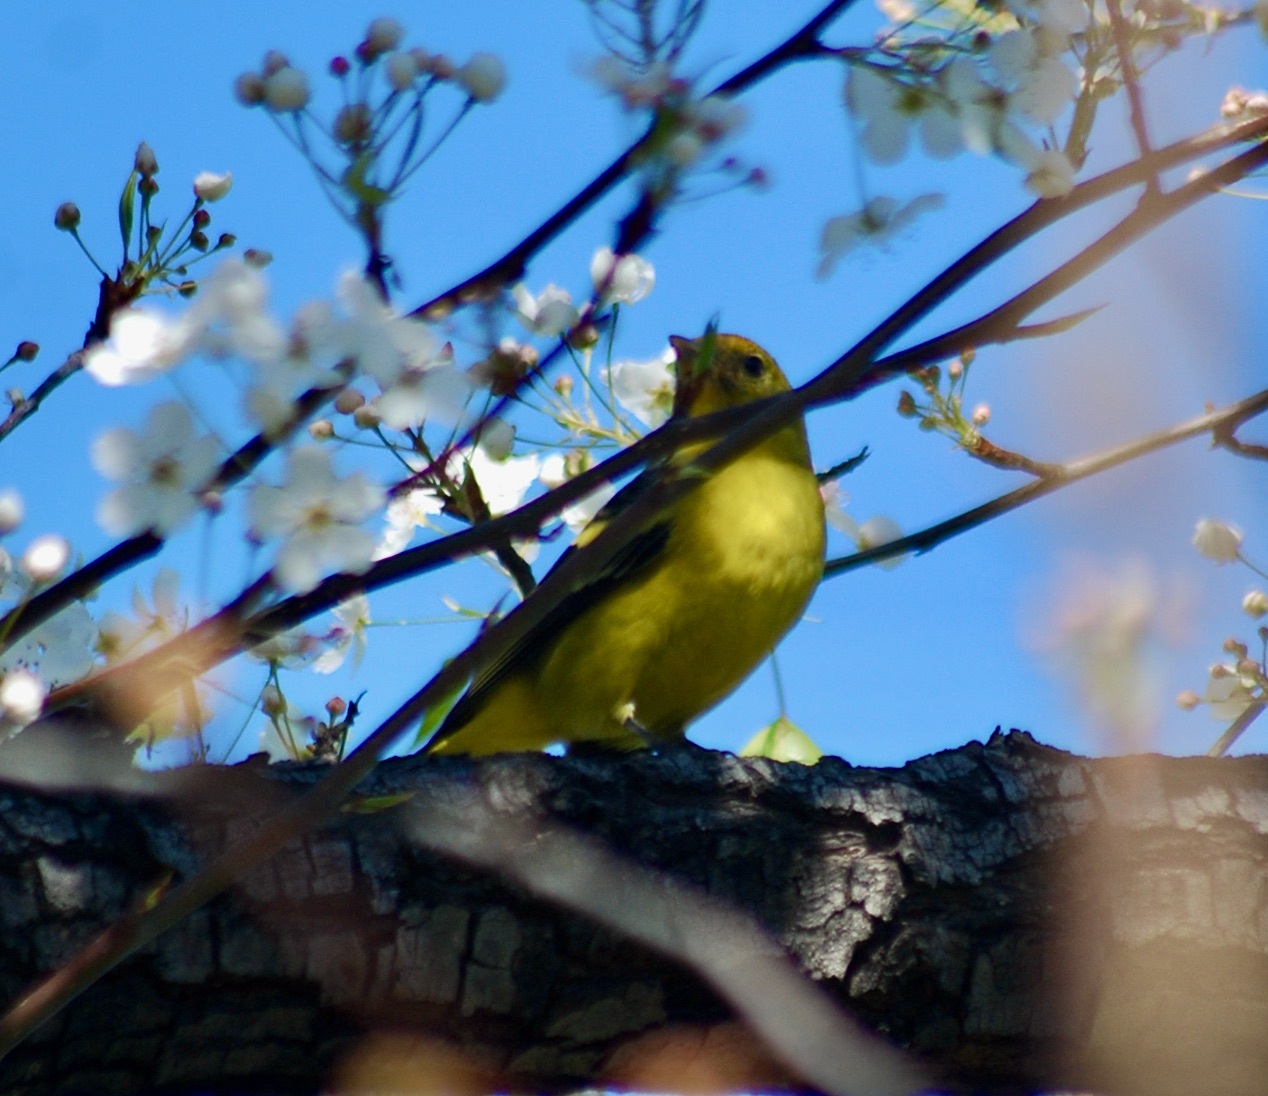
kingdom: Animalia
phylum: Chordata
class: Aves
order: Passeriformes
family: Cardinalidae
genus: Piranga
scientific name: Piranga ludoviciana
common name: Western tanager
